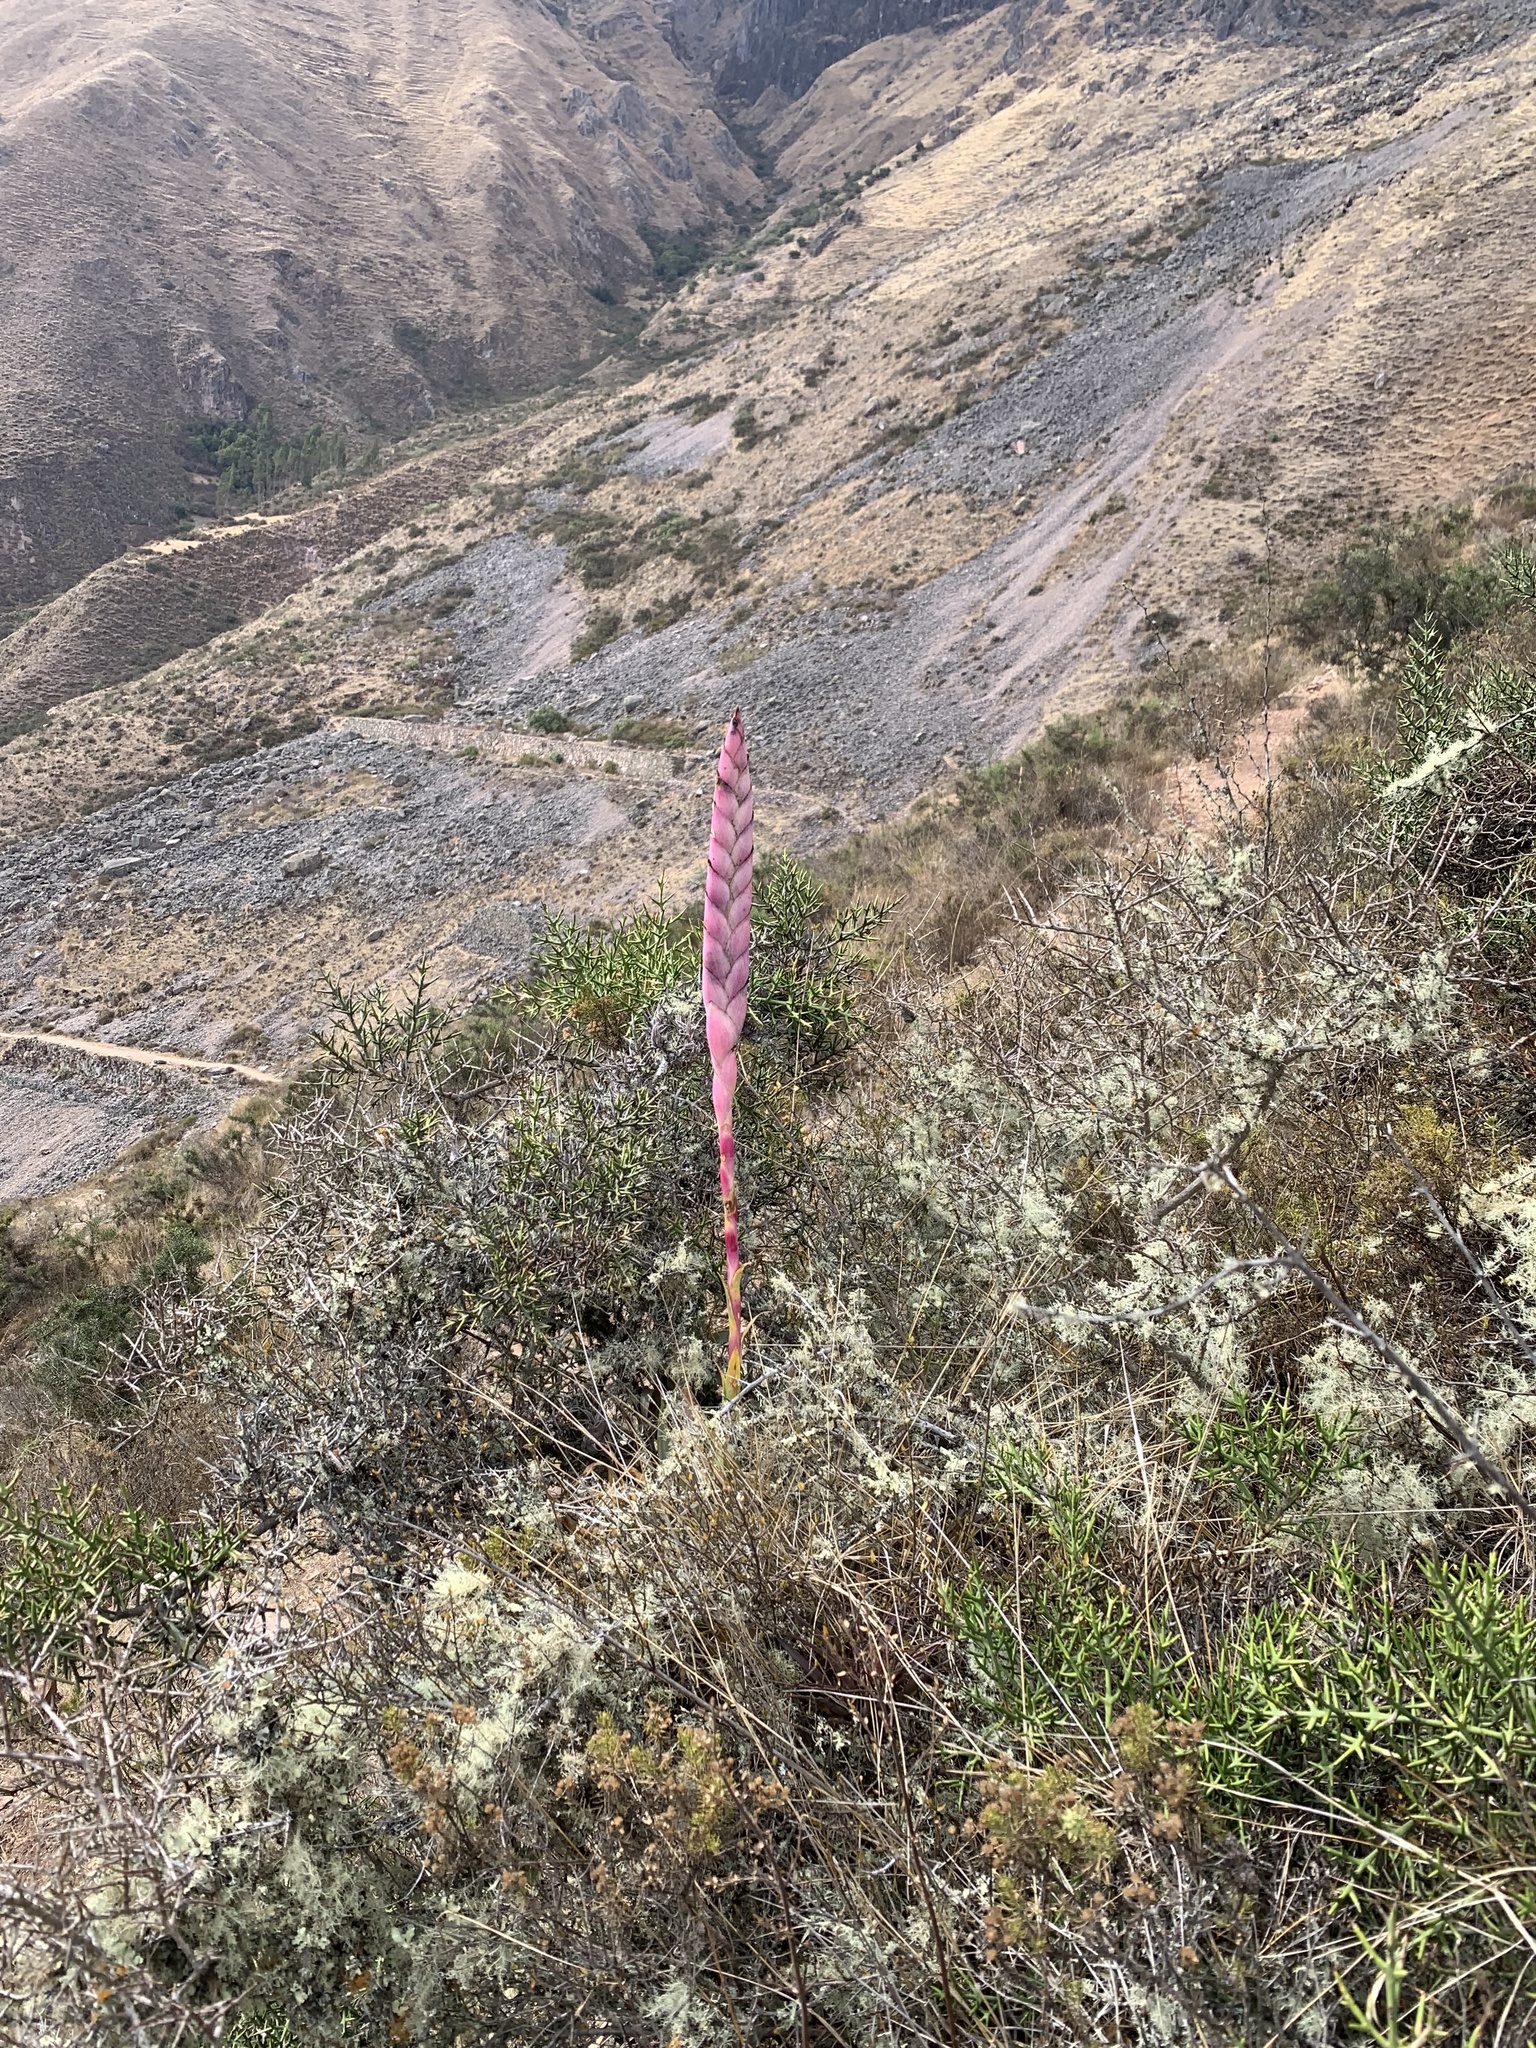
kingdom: Plantae
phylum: Tracheophyta
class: Liliopsida
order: Poales
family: Bromeliaceae
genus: Tillandsia
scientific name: Tillandsia walteri
